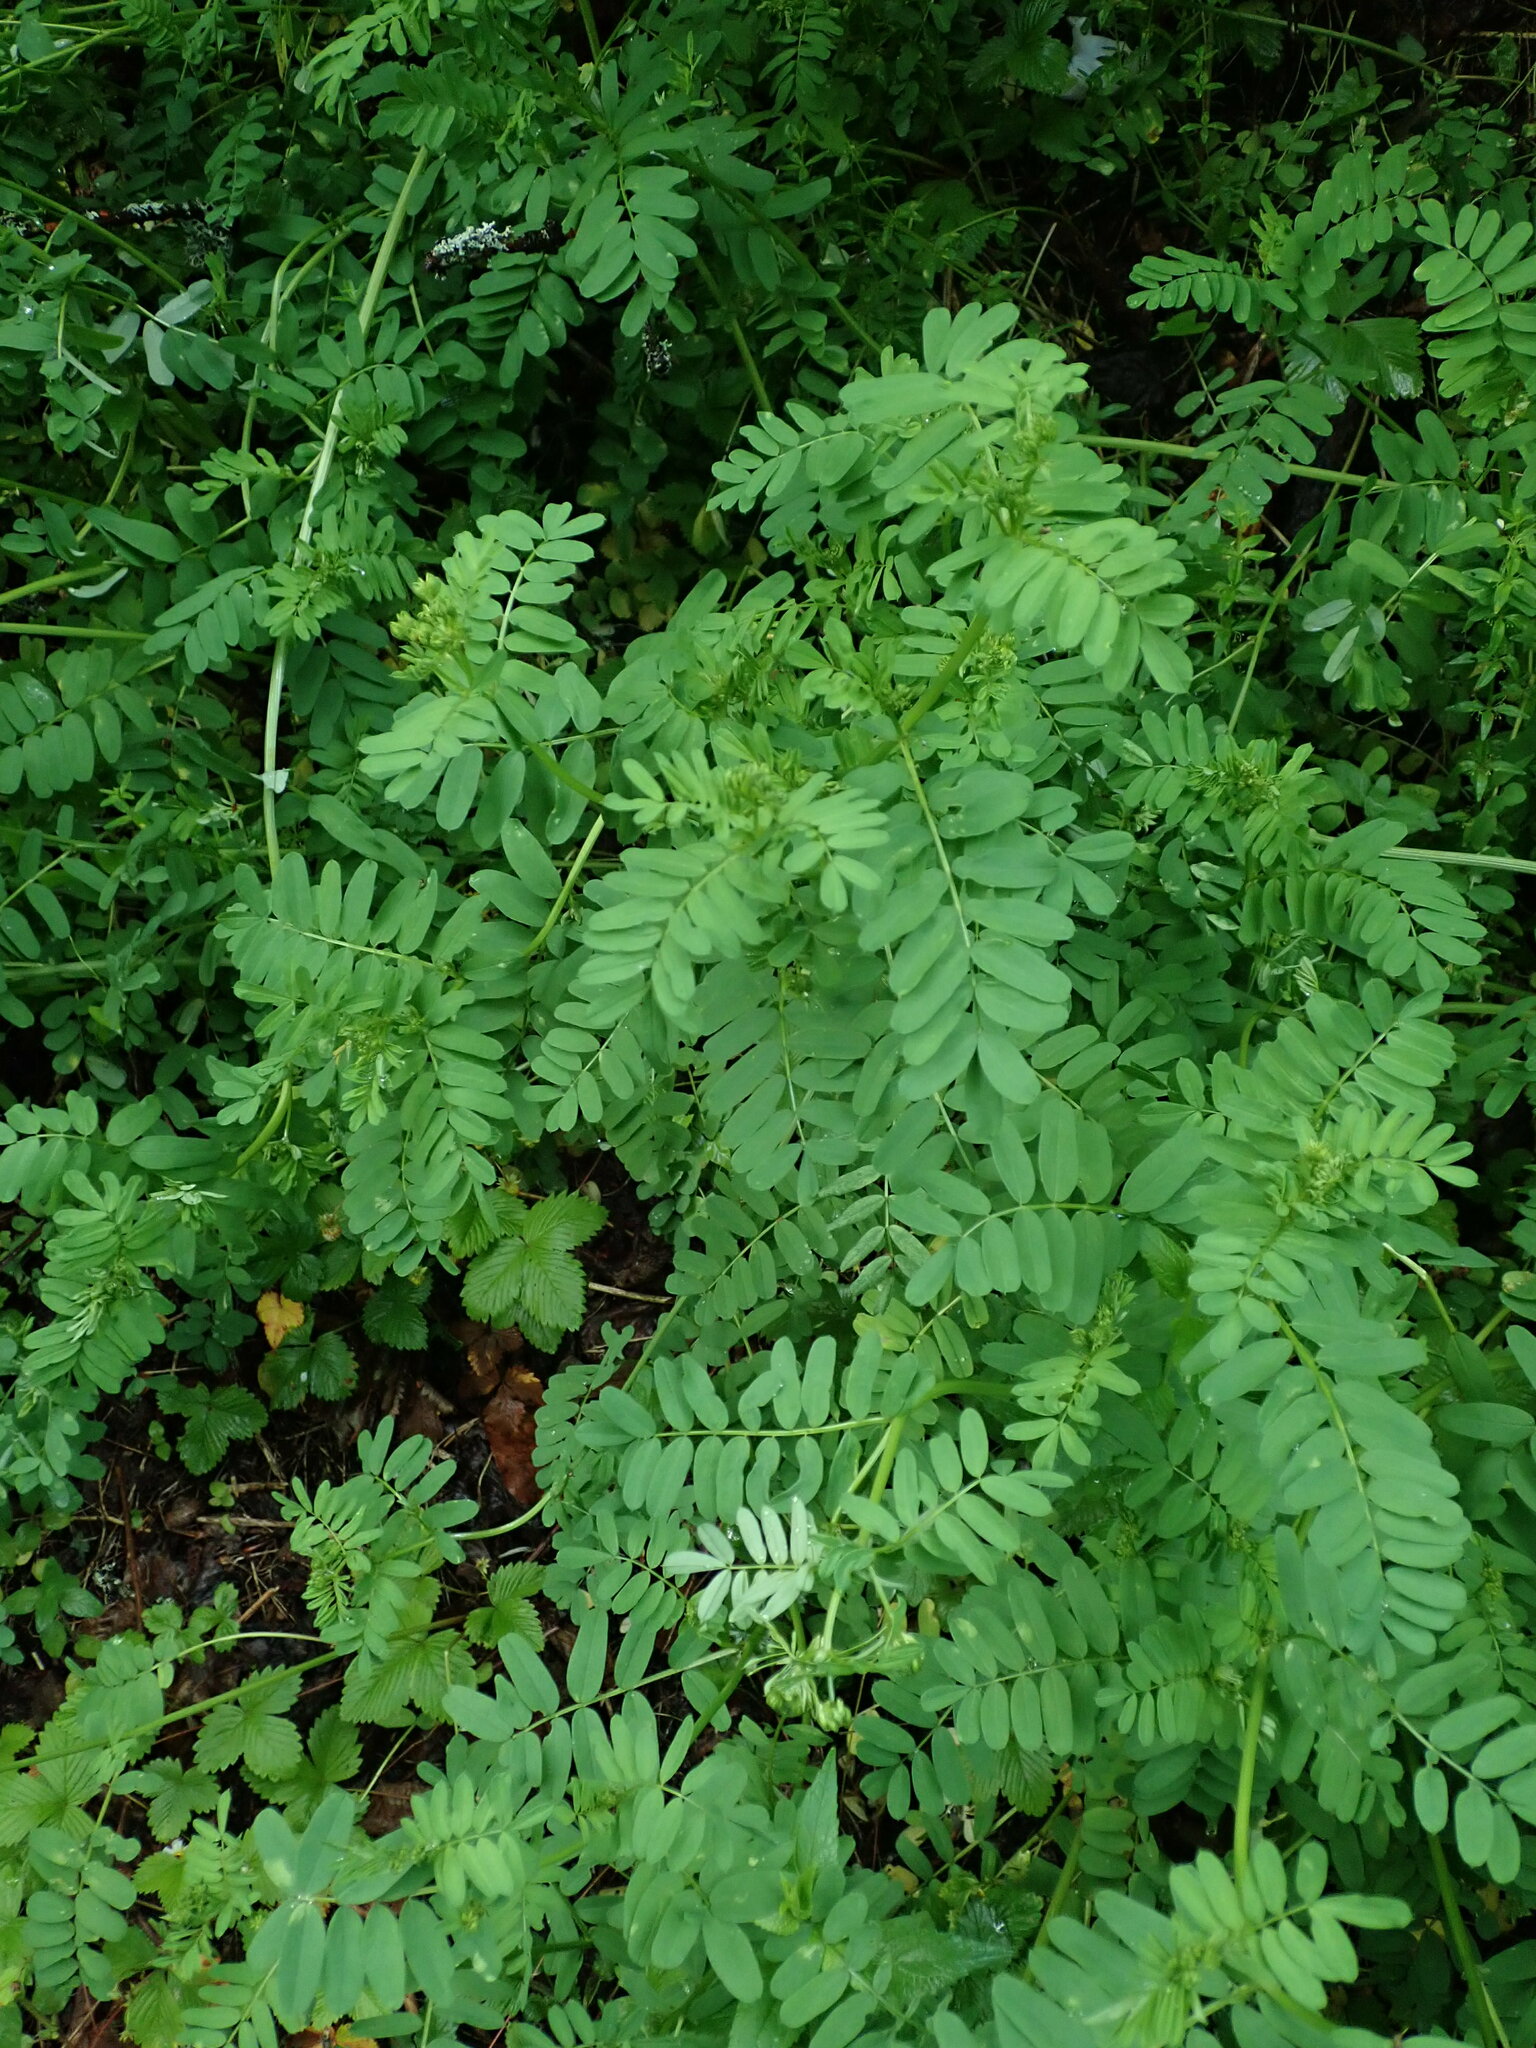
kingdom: Plantae
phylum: Tracheophyta
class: Magnoliopsida
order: Fabales
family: Fabaceae
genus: Coronilla
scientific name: Coronilla varia
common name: Crownvetch
